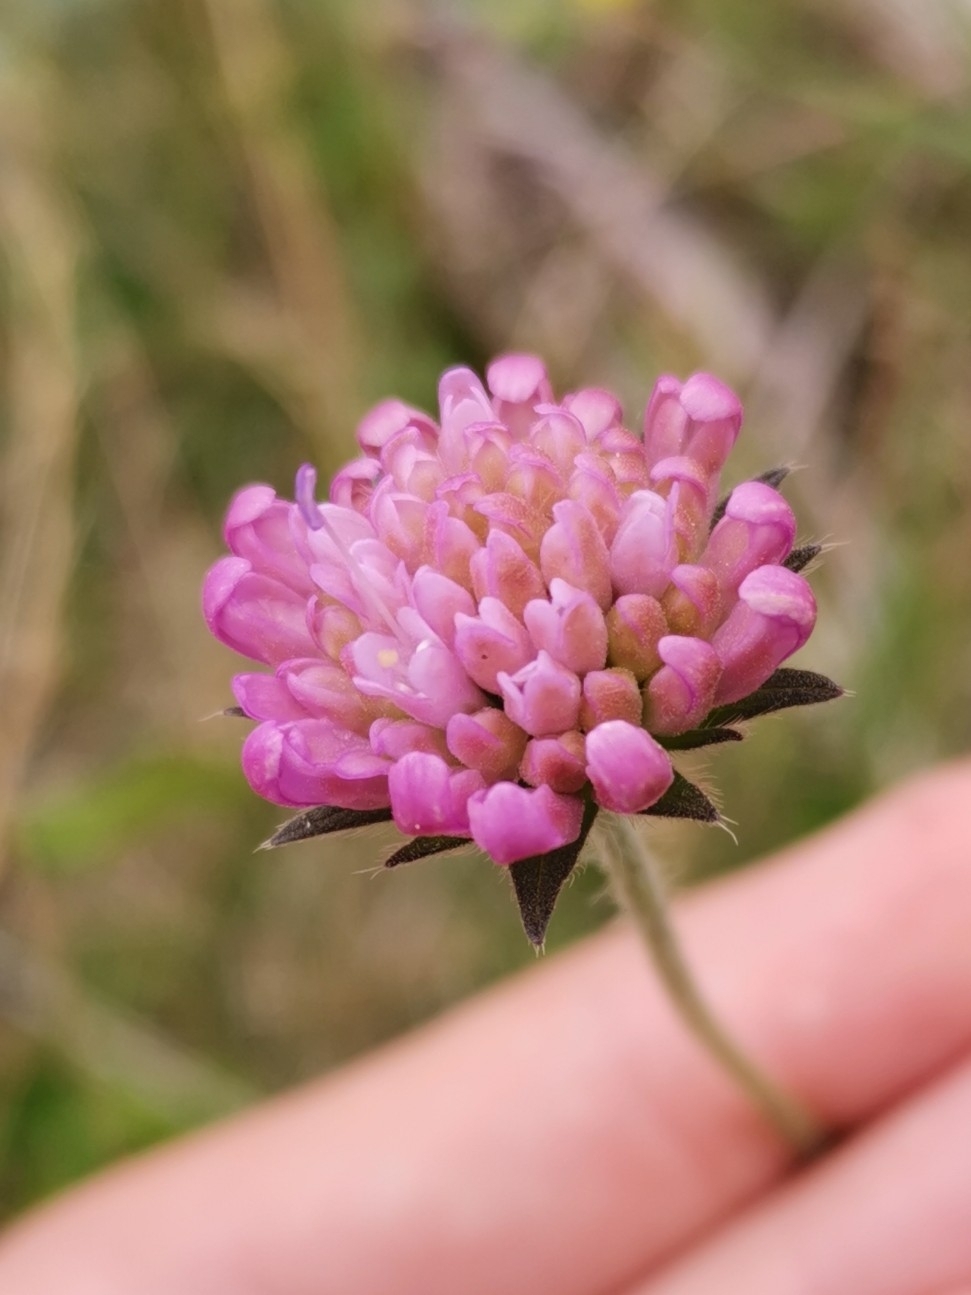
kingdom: Plantae
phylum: Tracheophyta
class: Magnoliopsida
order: Dipsacales
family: Caprifoliaceae
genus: Knautia
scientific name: Knautia arvensis
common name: Field scabiosa
